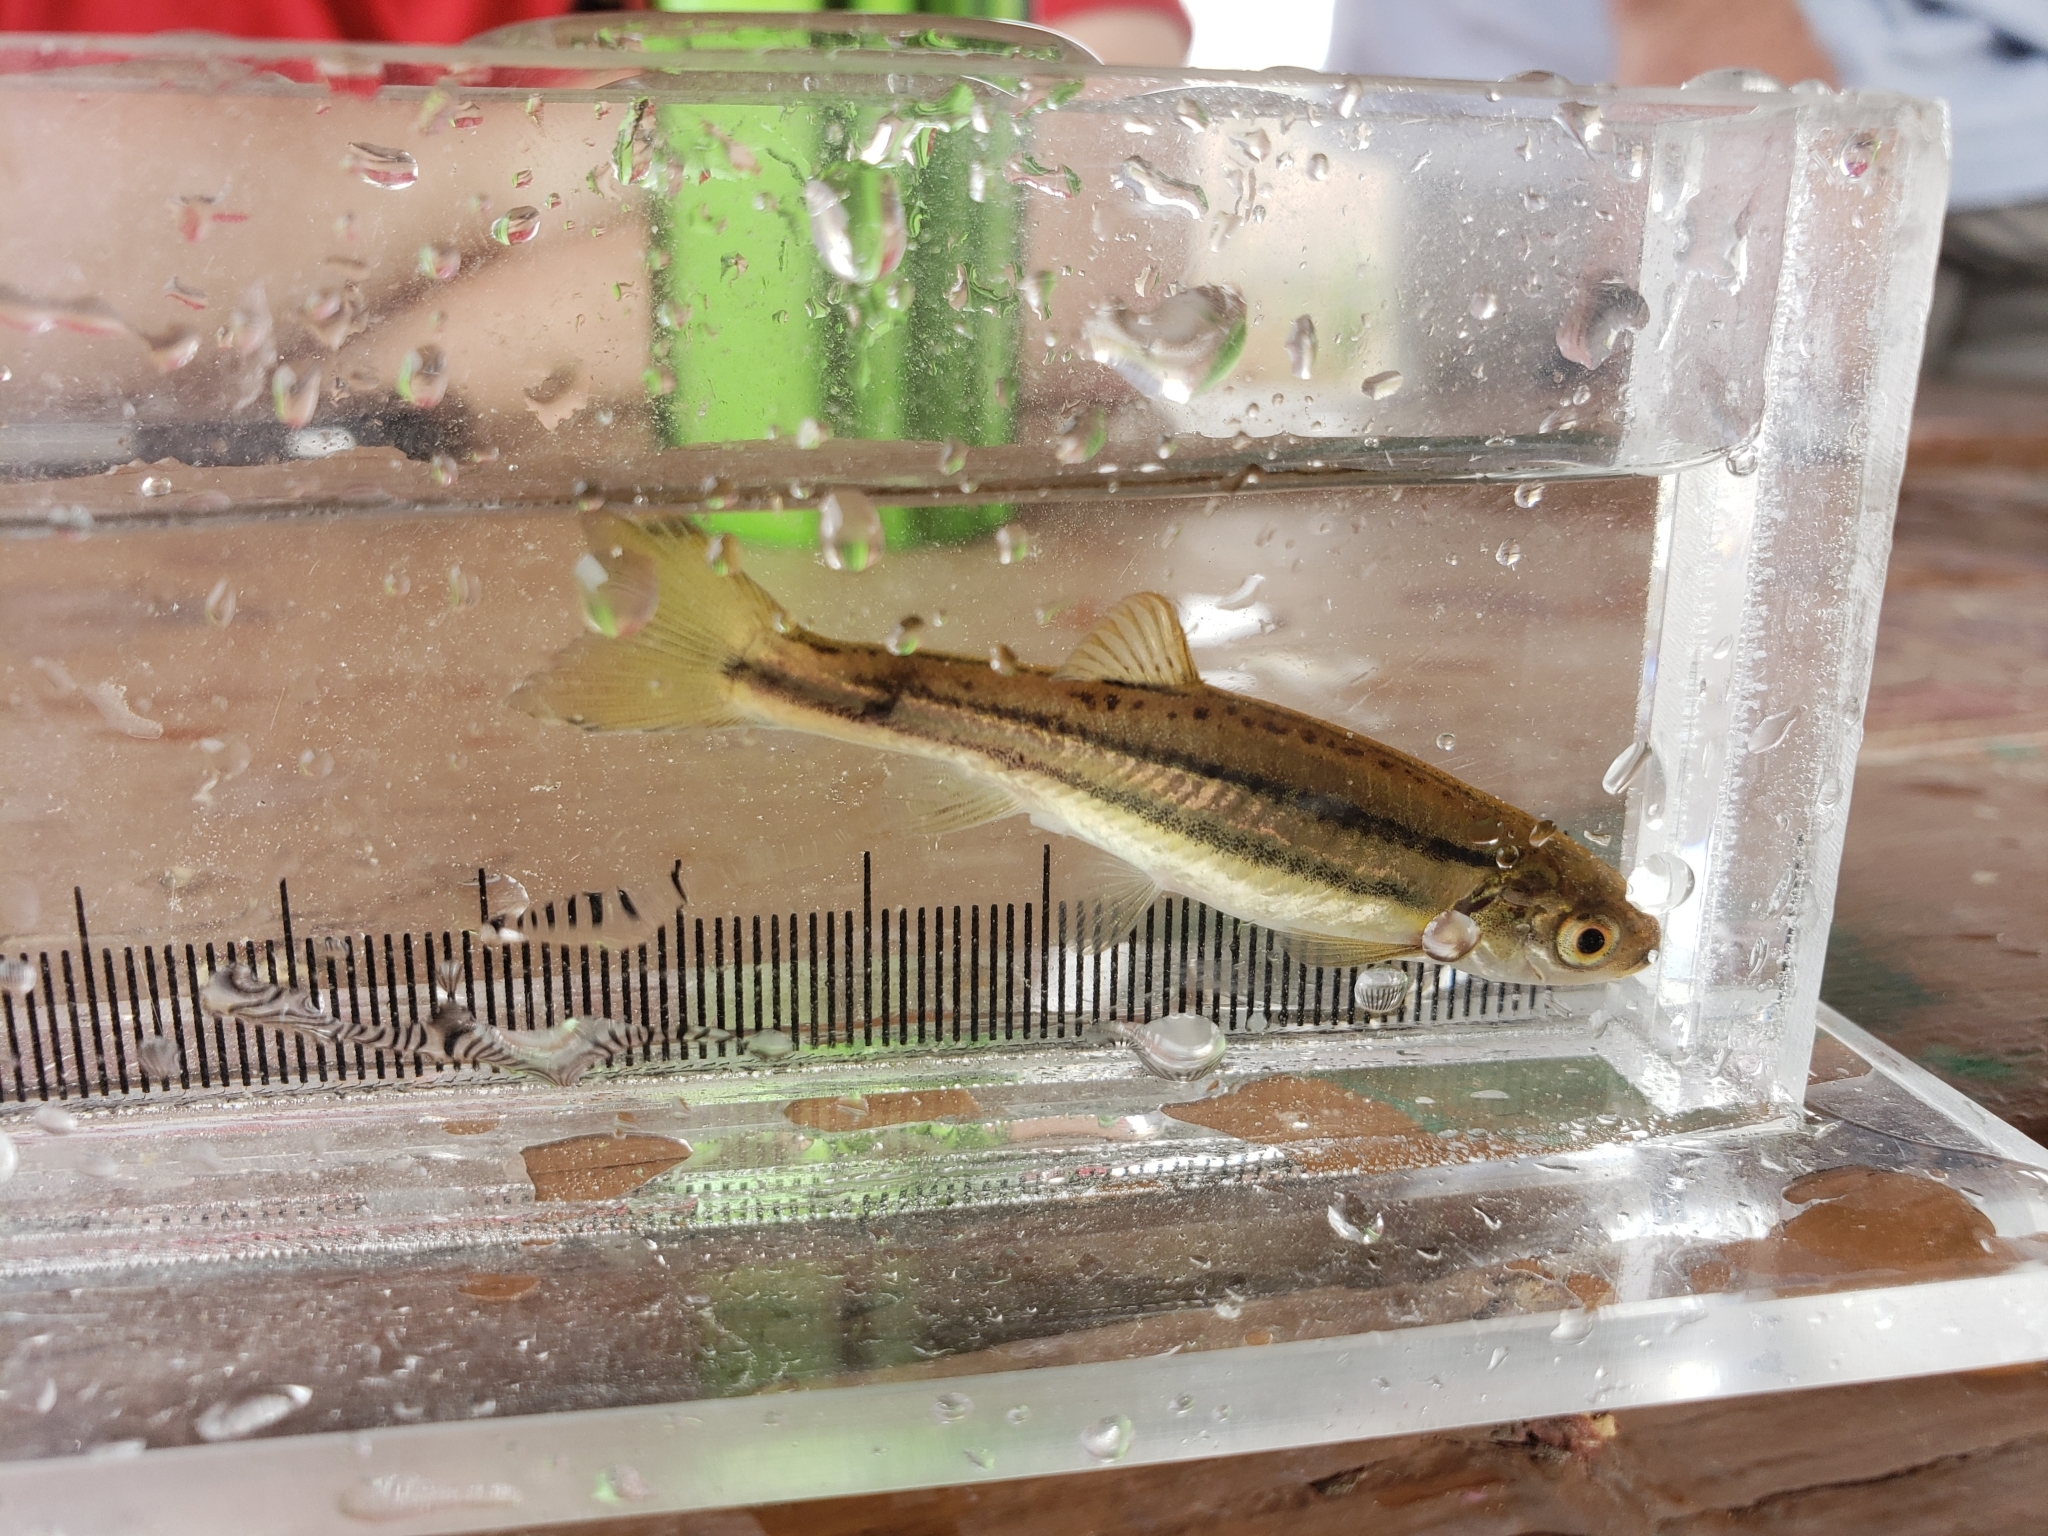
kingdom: Animalia
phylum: Chordata
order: Cypriniformes
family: Cyprinidae
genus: Chrosomus
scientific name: Chrosomus eos
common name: Northern redbelly dace
